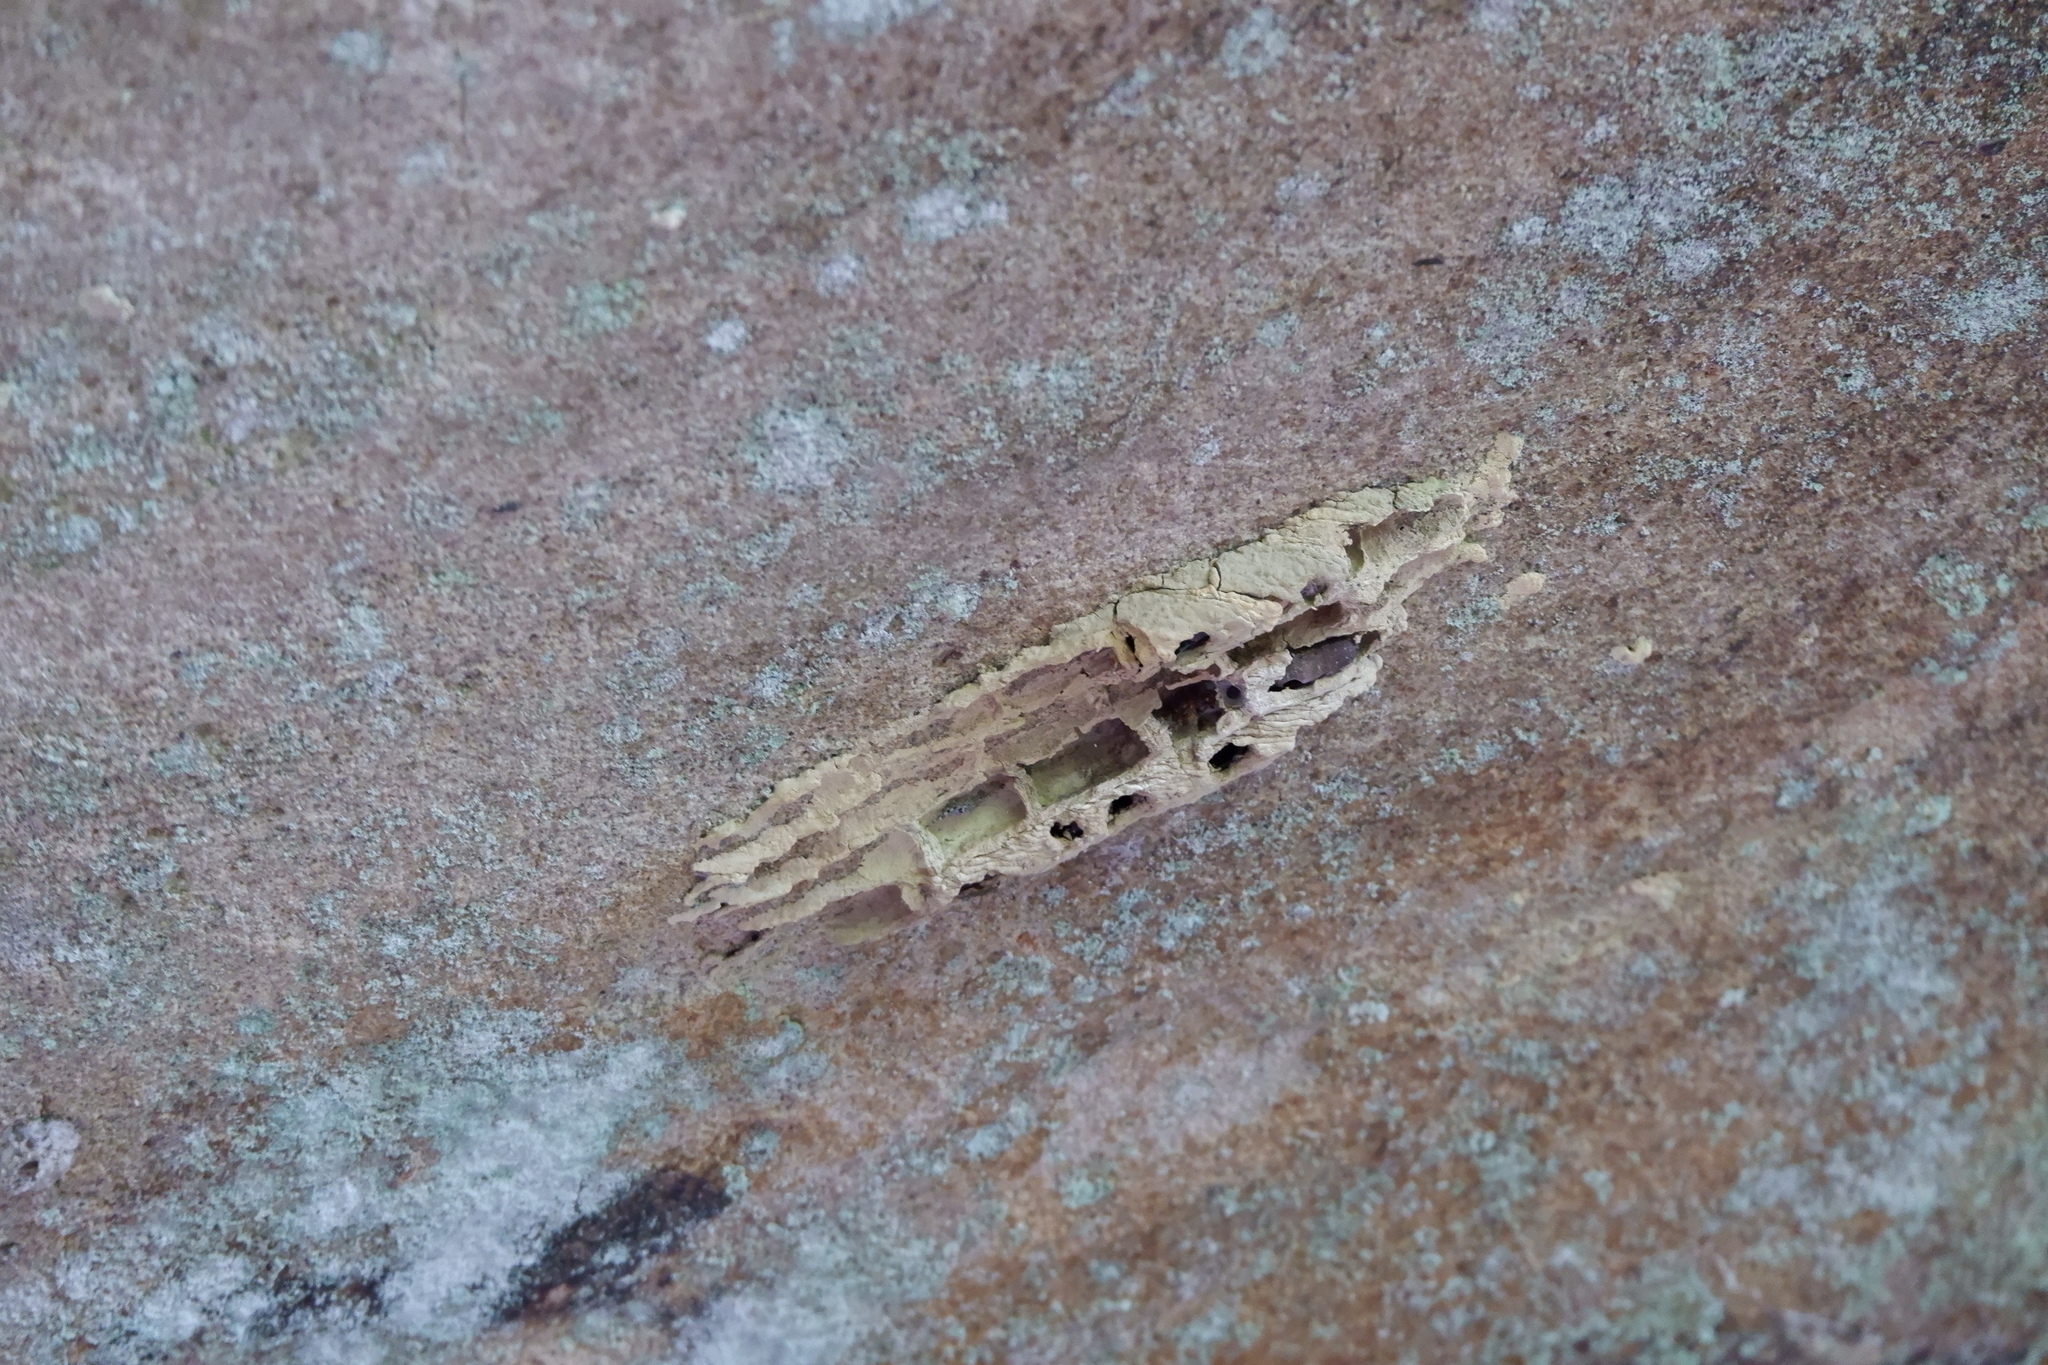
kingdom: Animalia
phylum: Arthropoda
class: Insecta
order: Hymenoptera
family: Crabronidae
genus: Trypoxylon
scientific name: Trypoxylon politum
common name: Organ-pipe mud-dauber wasp
